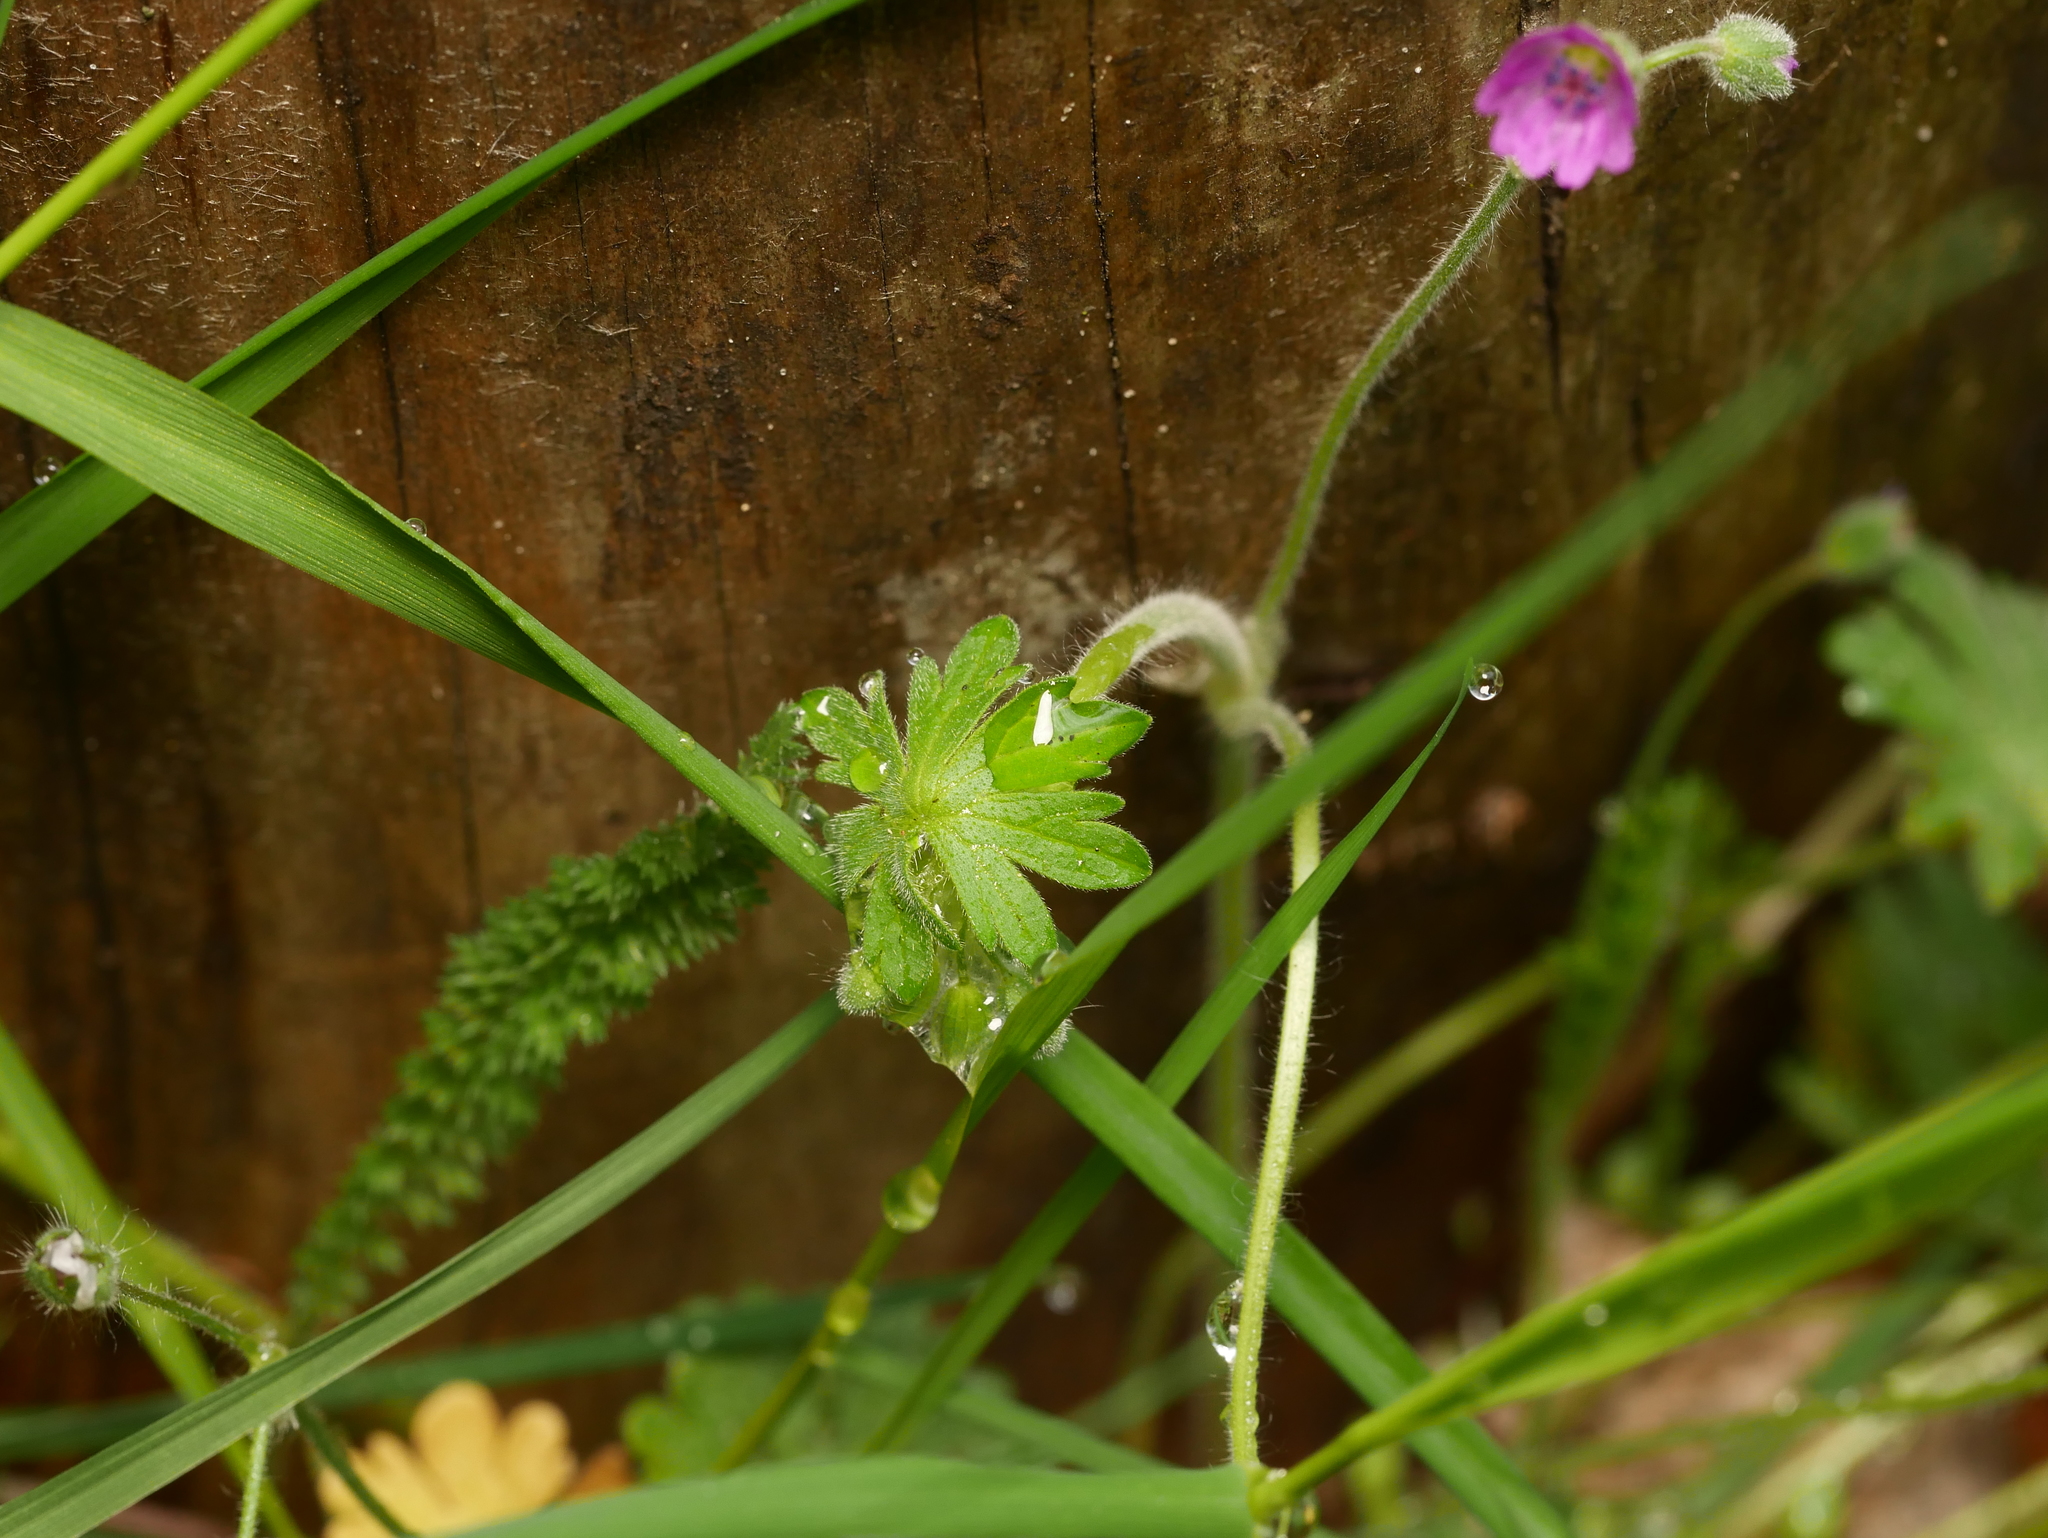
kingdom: Plantae
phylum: Tracheophyta
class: Magnoliopsida
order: Geraniales
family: Geraniaceae
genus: Geranium
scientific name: Geranium molle
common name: Dove's-foot crane's-bill
